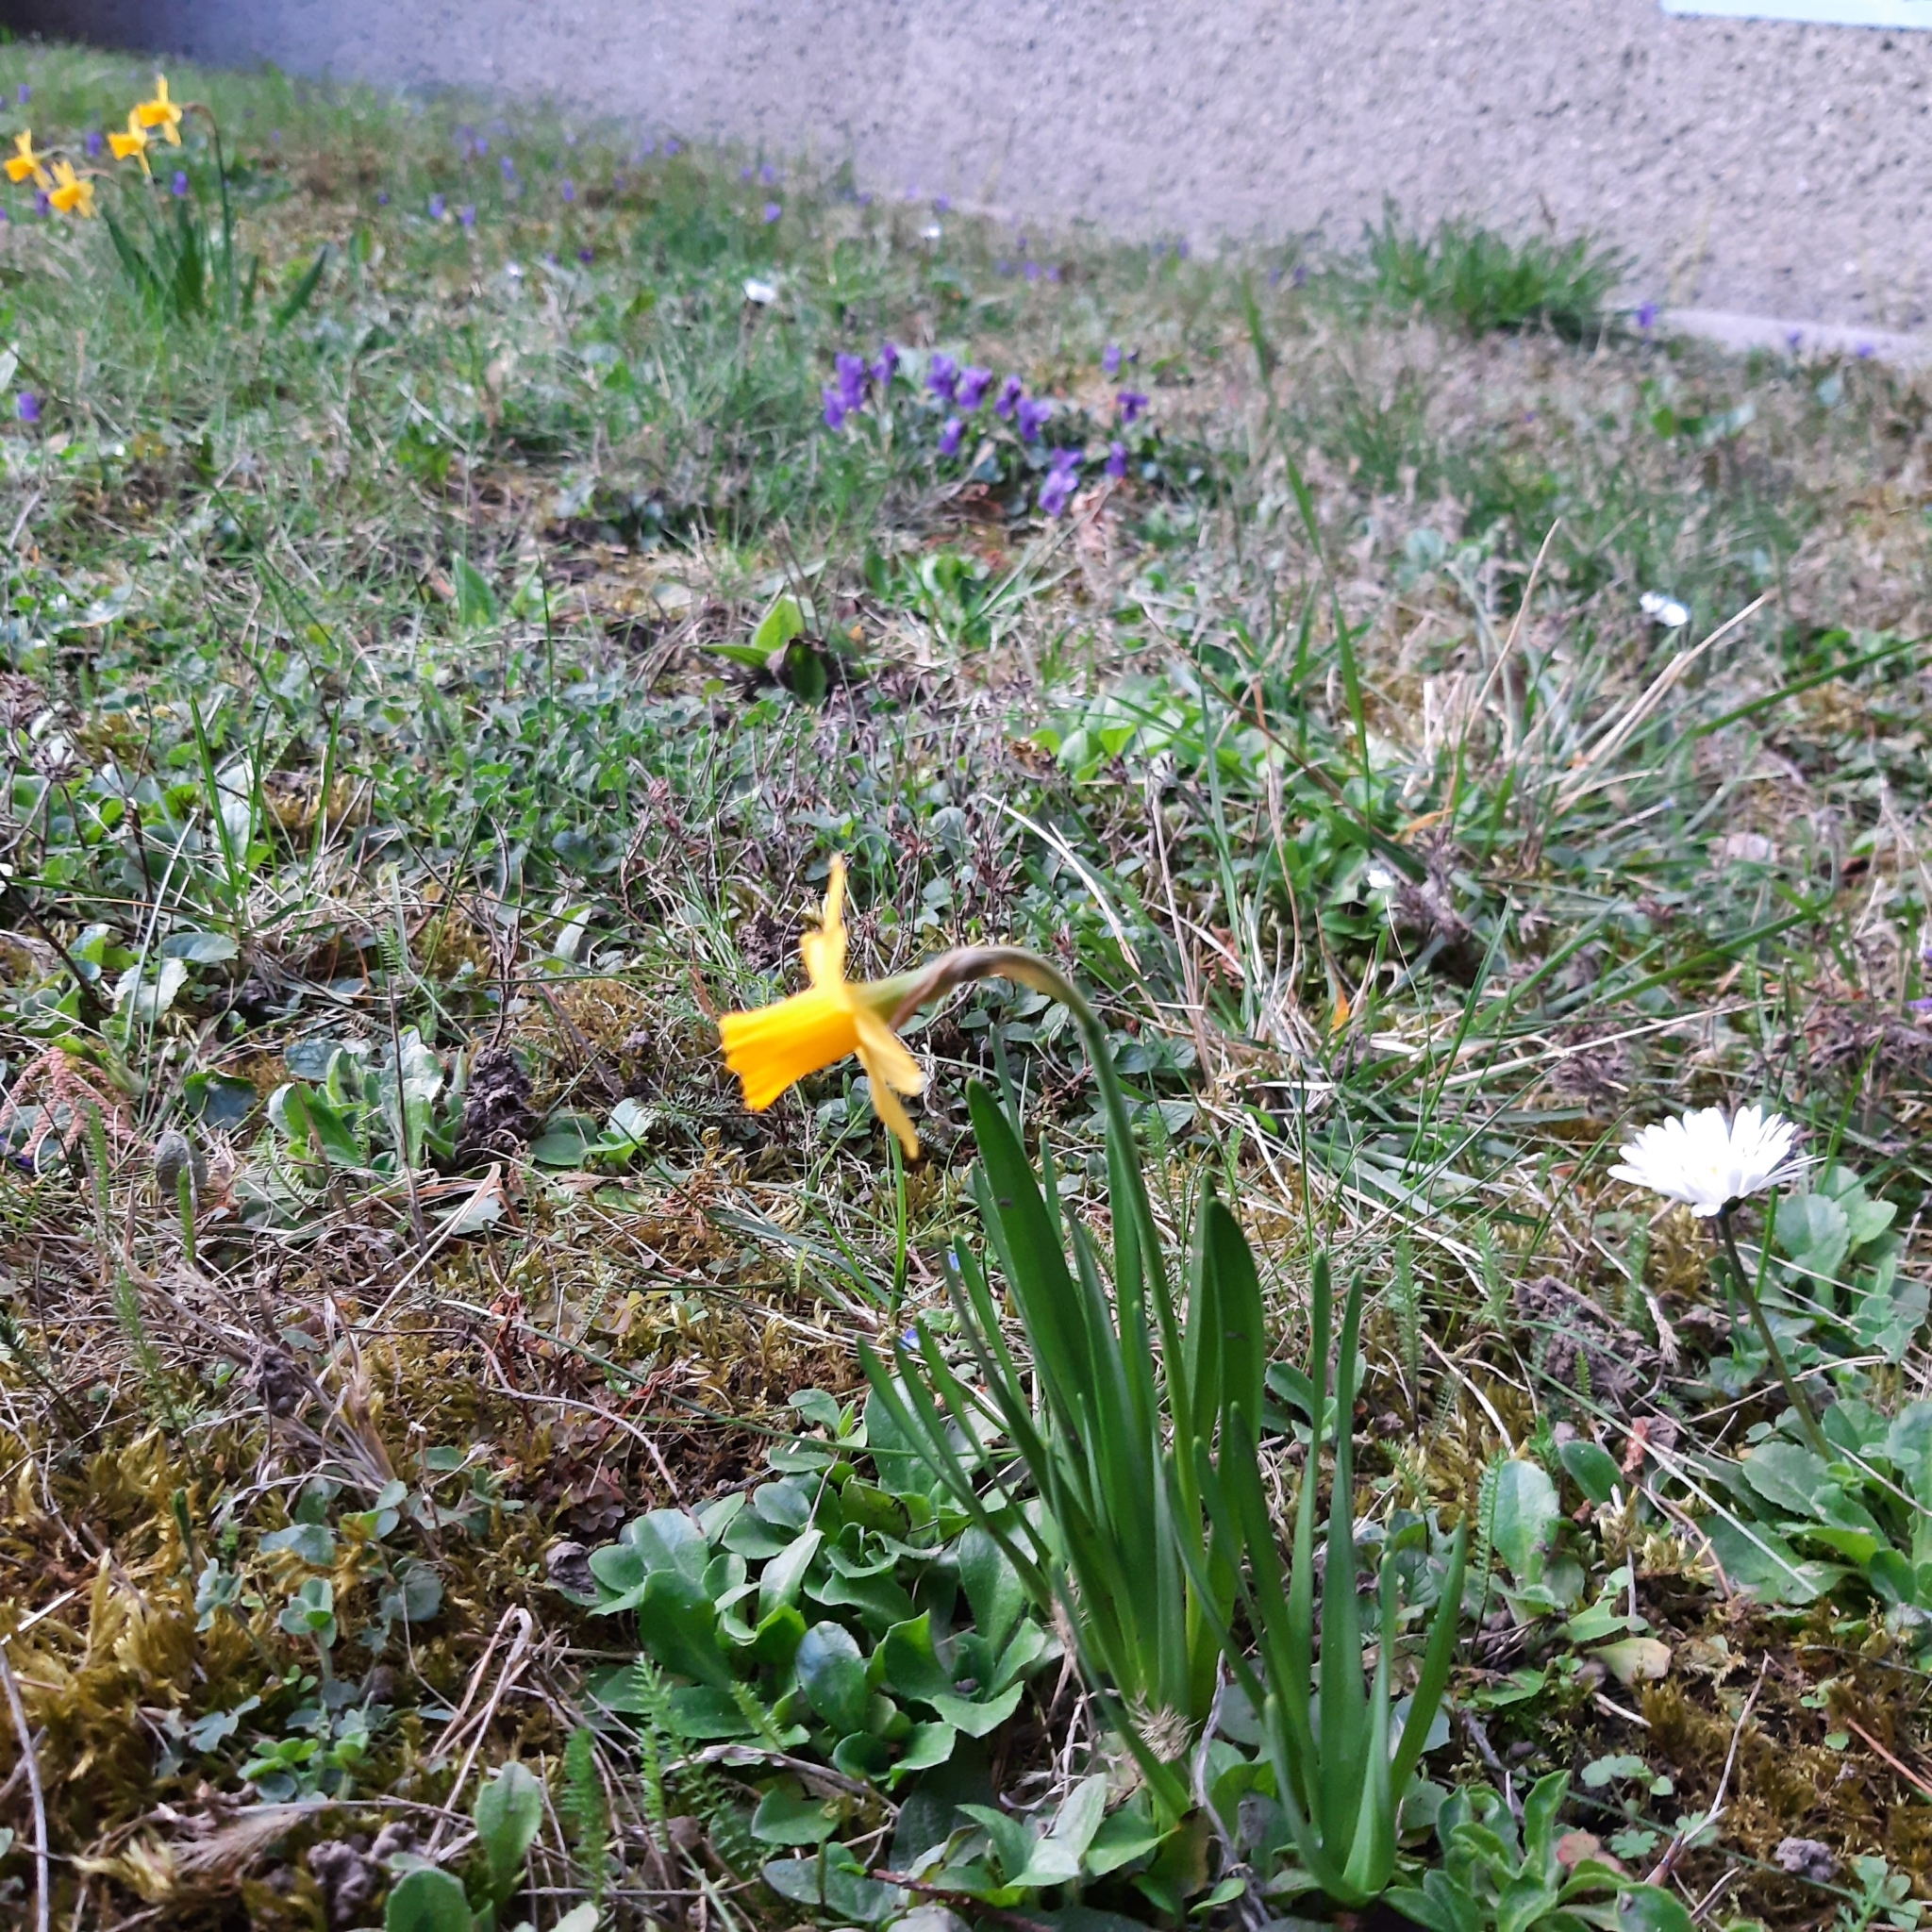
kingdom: Plantae
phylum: Tracheophyta
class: Liliopsida
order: Asparagales
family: Amaryllidaceae
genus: Narcissus
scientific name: Narcissus cyclazetta
